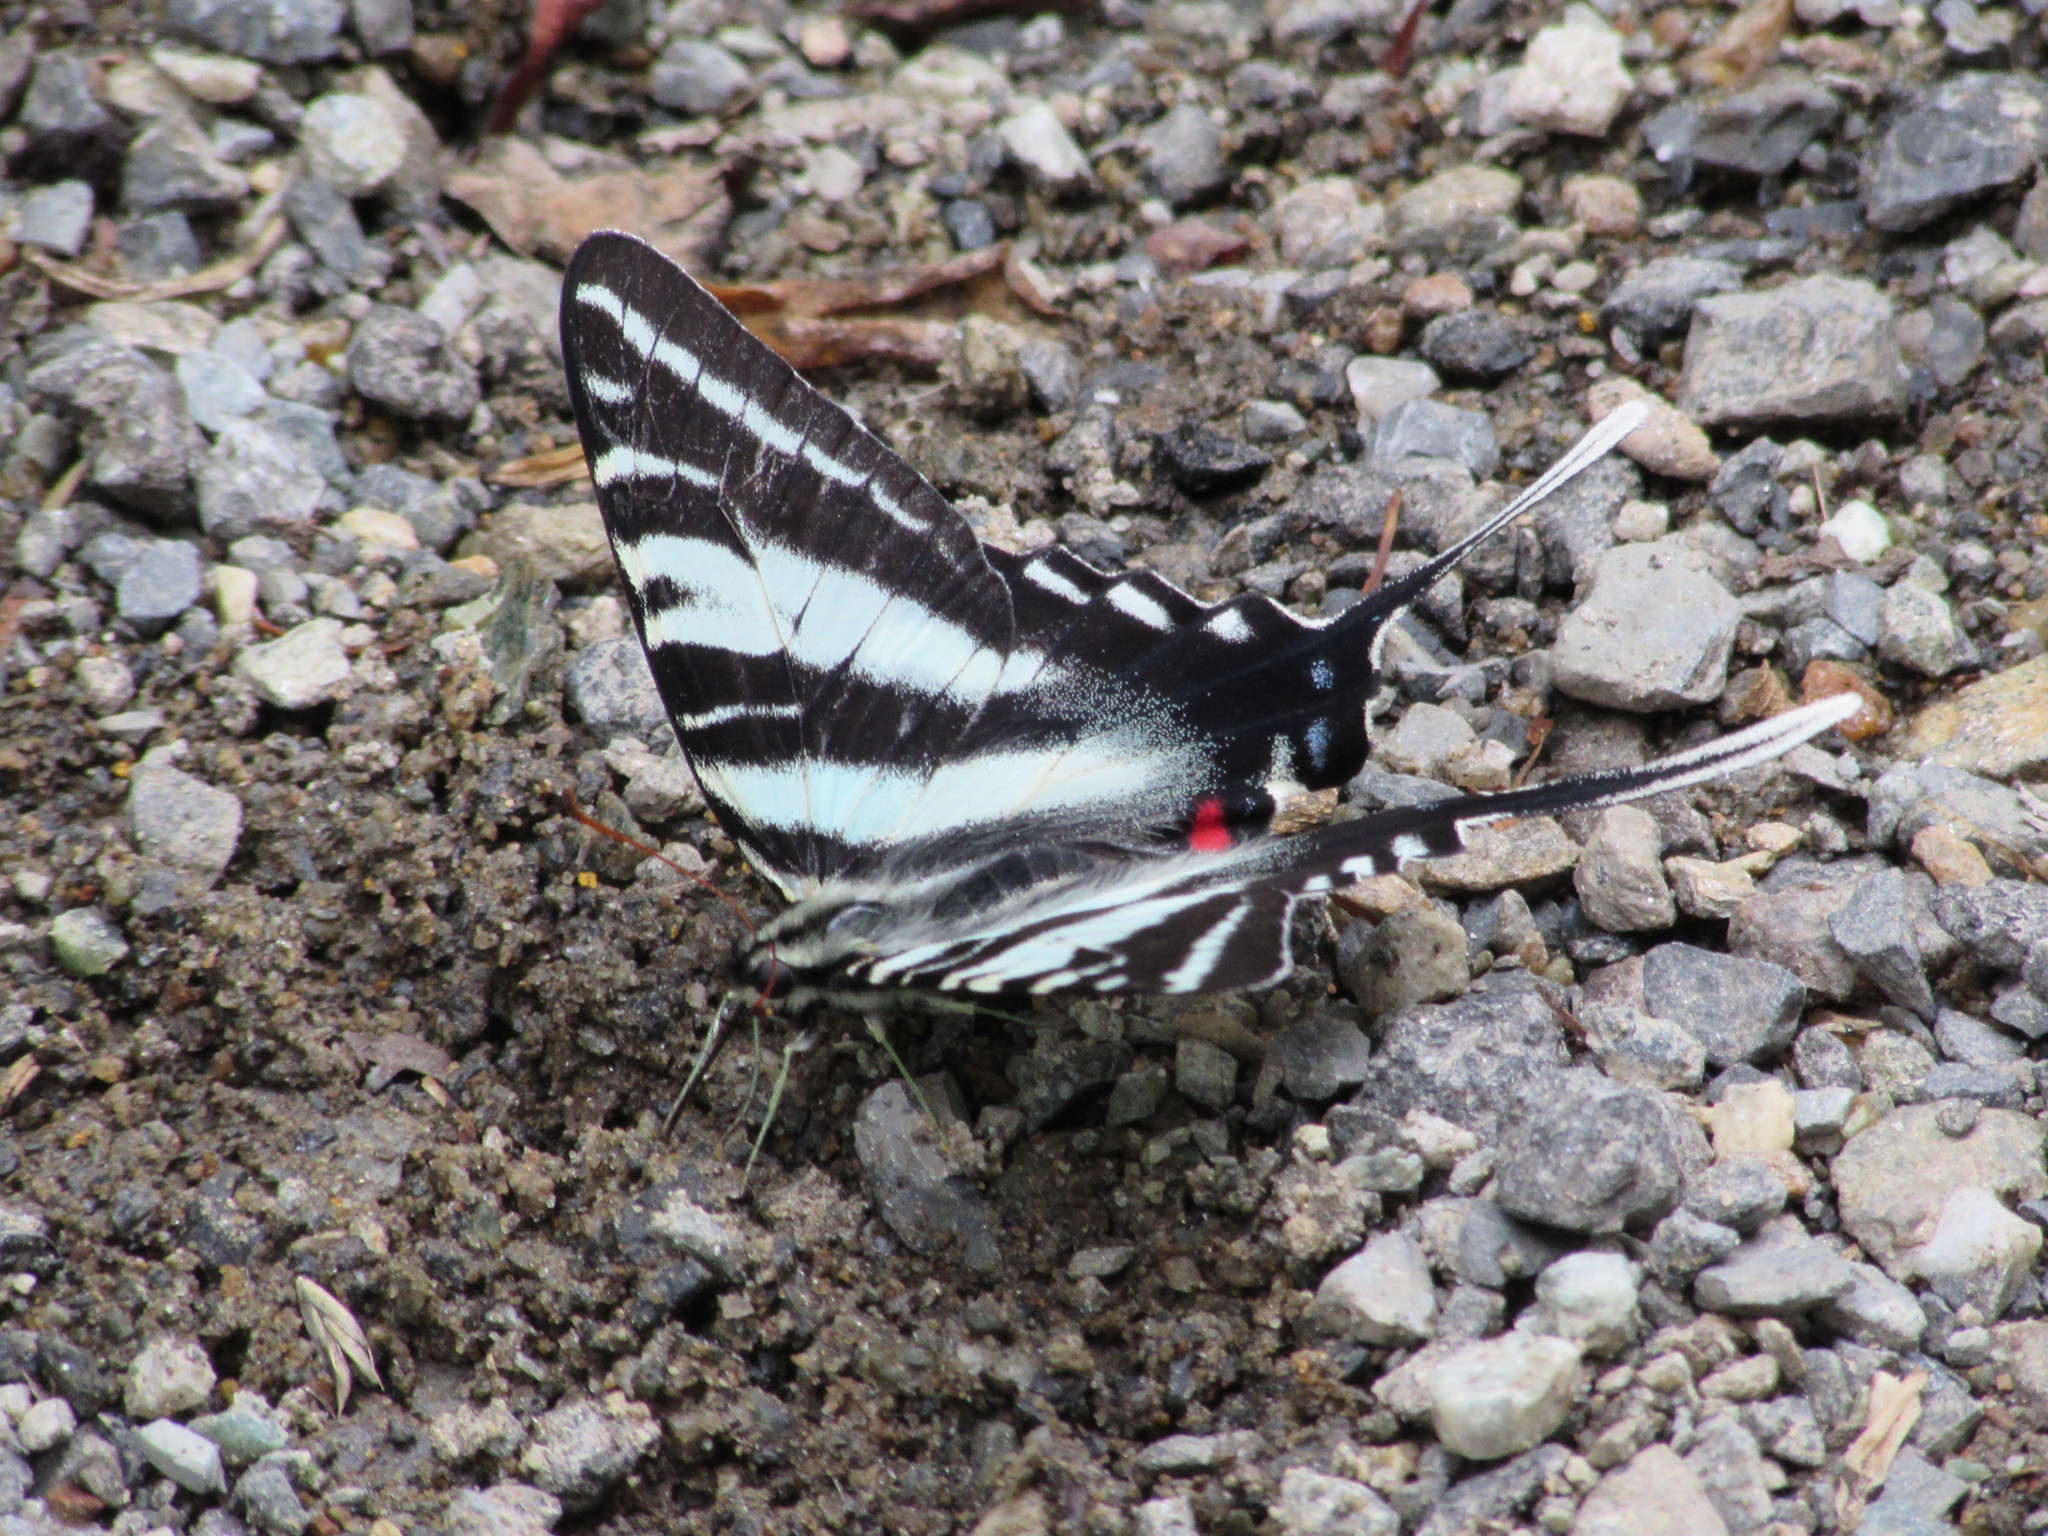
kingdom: Animalia
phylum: Arthropoda
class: Insecta
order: Lepidoptera
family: Papilionidae
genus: Protographium
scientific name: Protographium marcellus
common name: Zebra swallowtail
